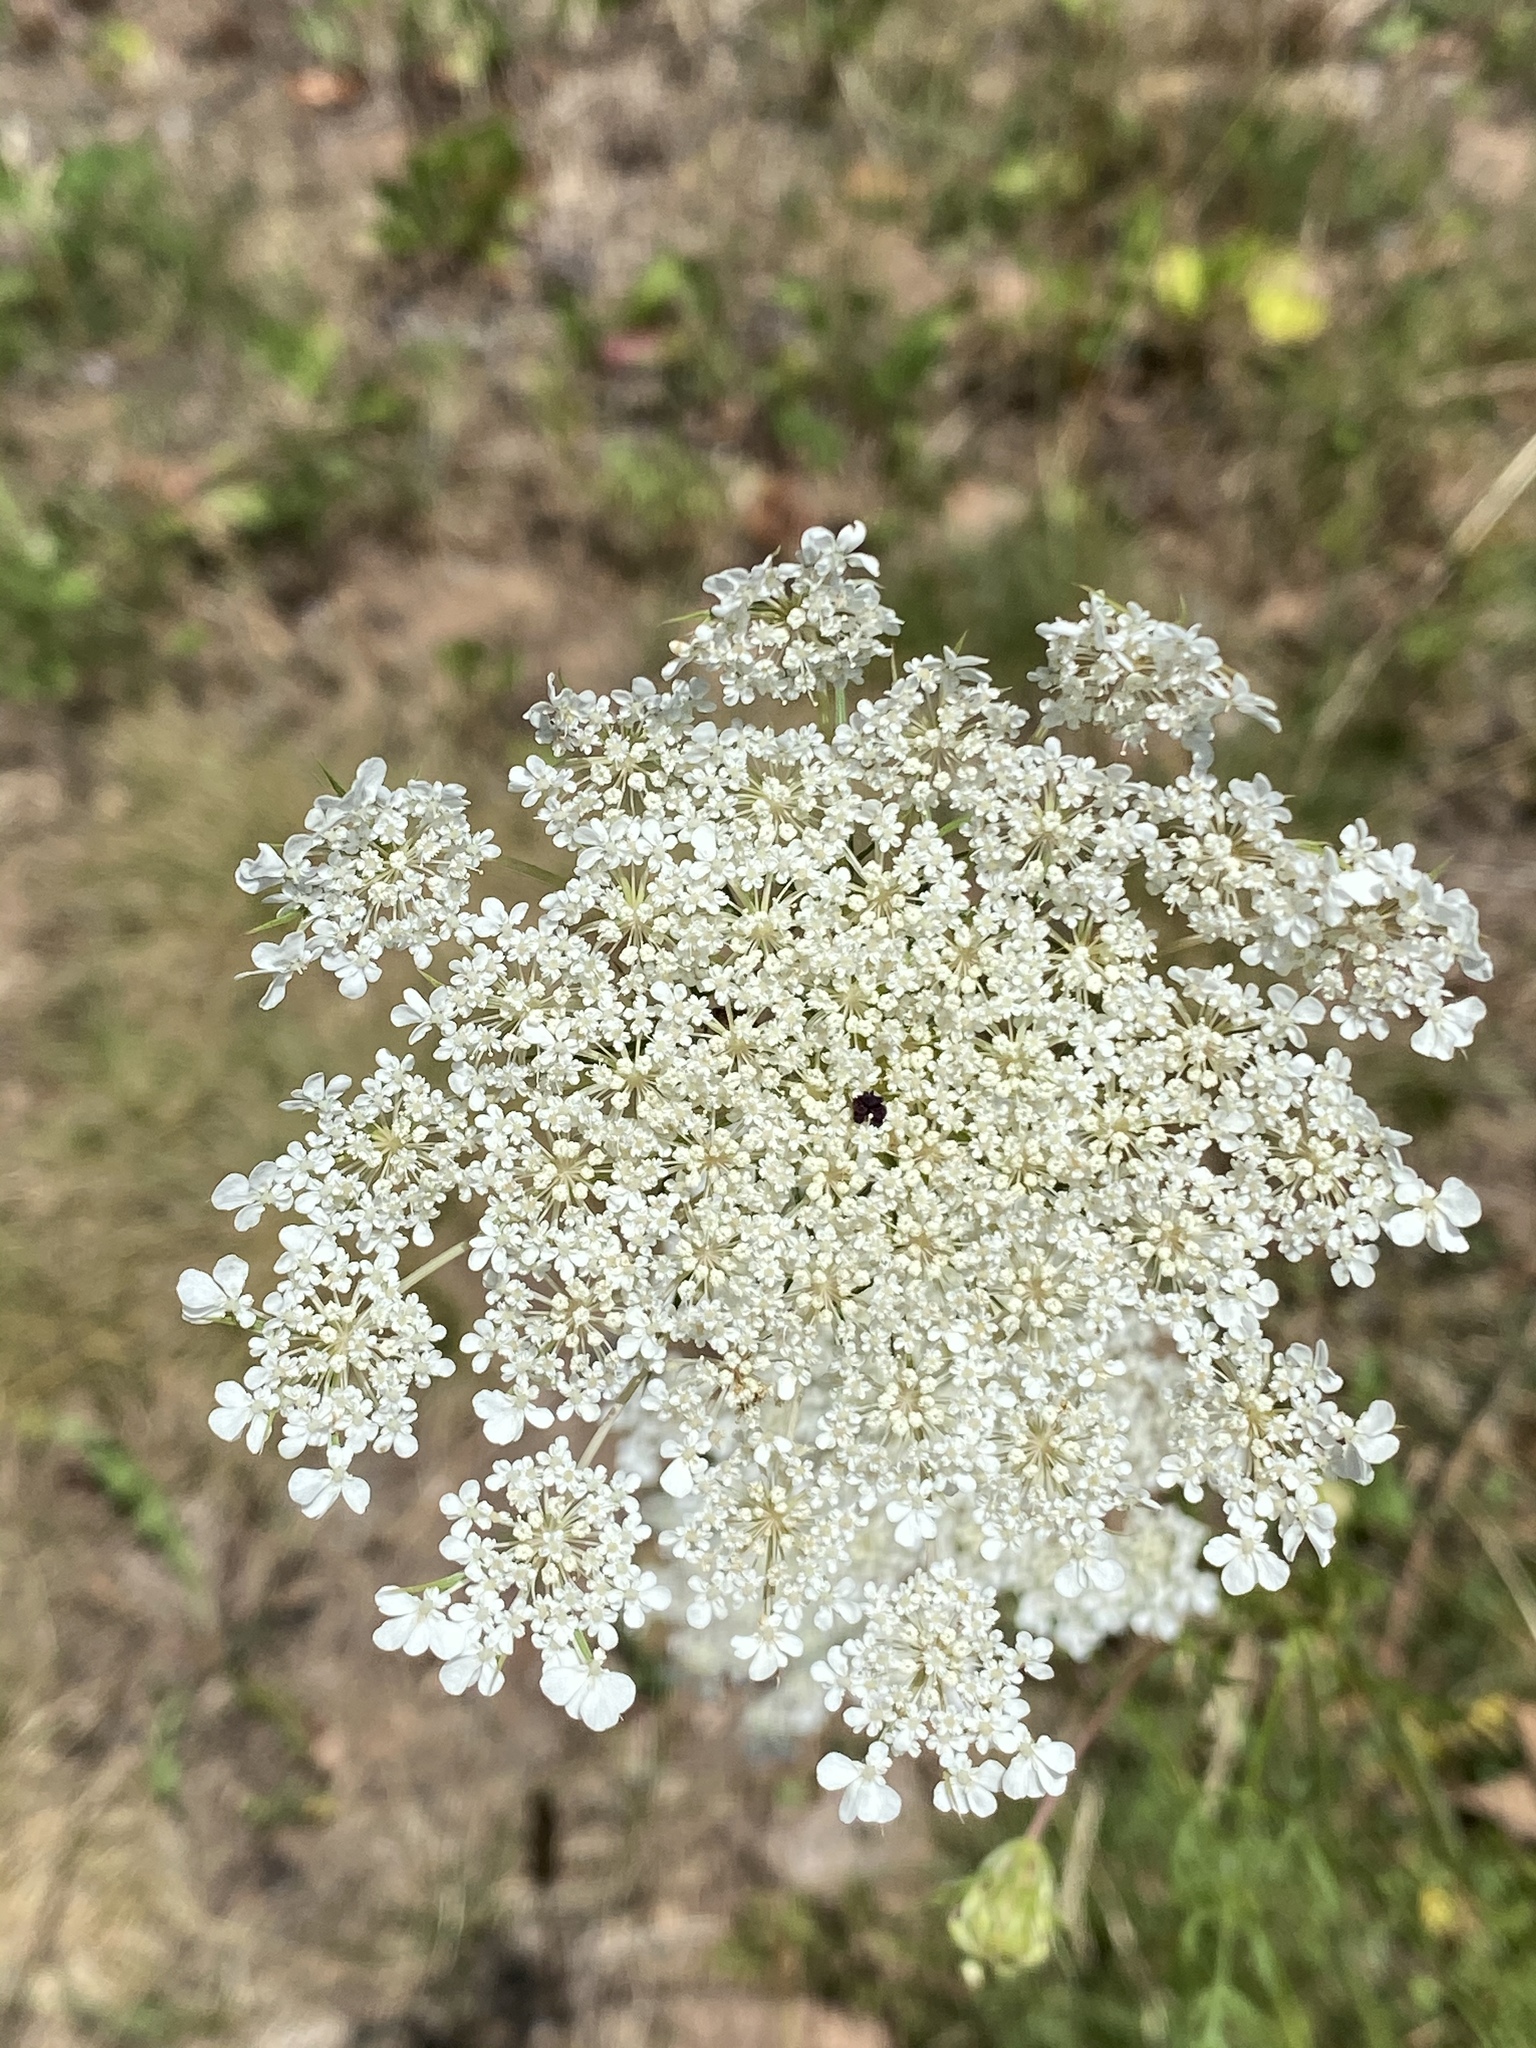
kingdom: Plantae
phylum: Tracheophyta
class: Magnoliopsida
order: Apiales
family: Apiaceae
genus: Daucus
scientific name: Daucus carota
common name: Wild carrot
